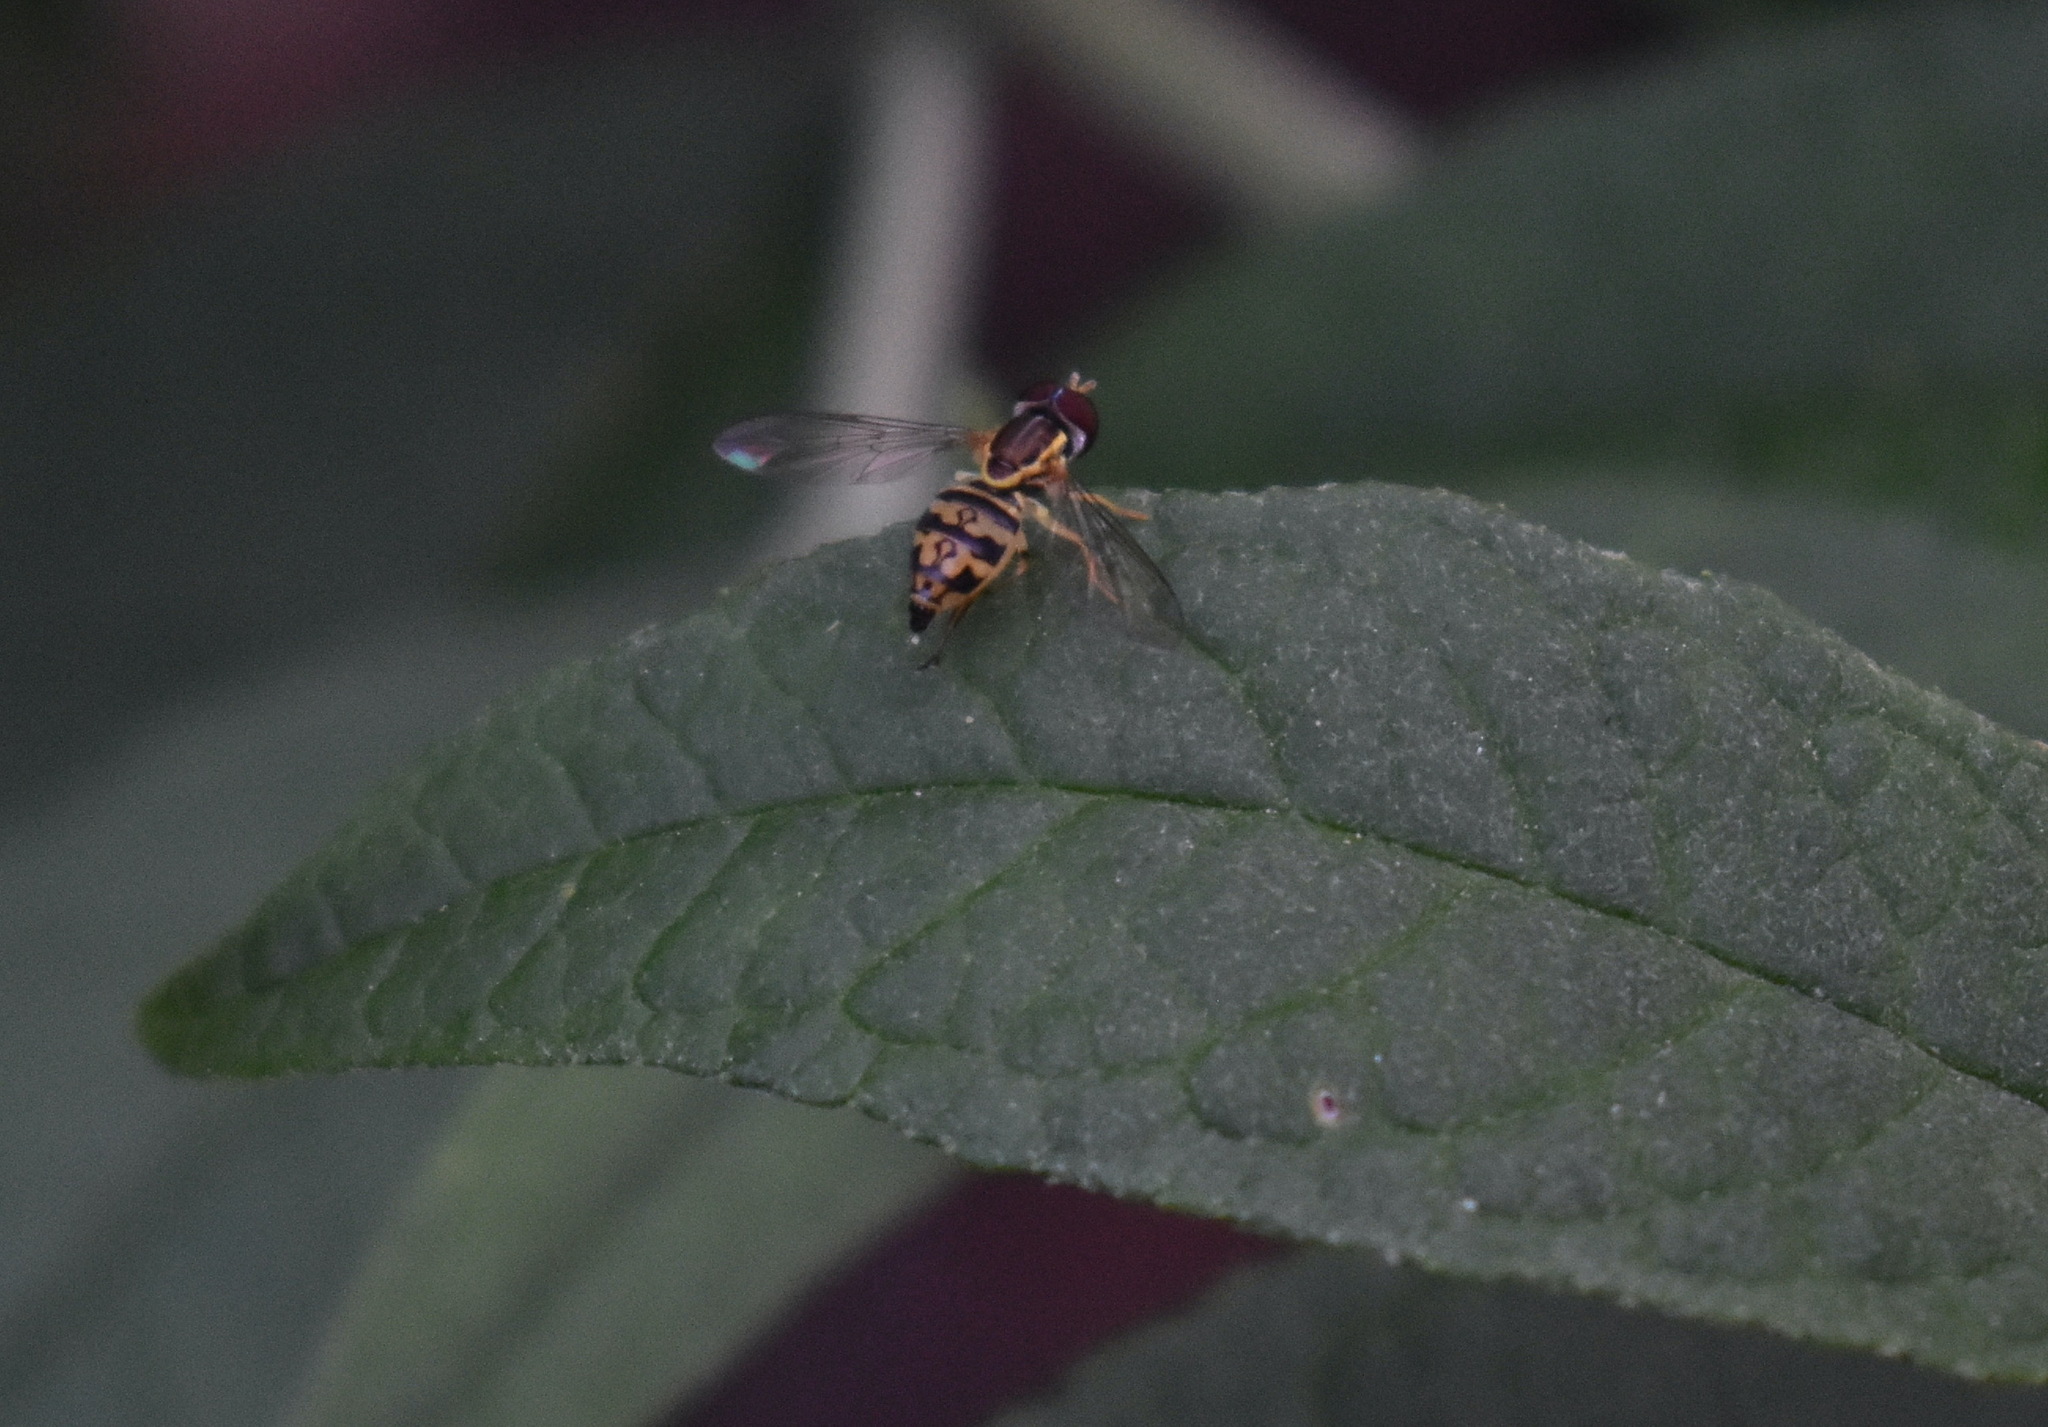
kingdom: Animalia
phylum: Arthropoda
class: Insecta
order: Diptera
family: Syrphidae
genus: Toxomerus
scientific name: Toxomerus geminatus
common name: Eastern calligrapher
